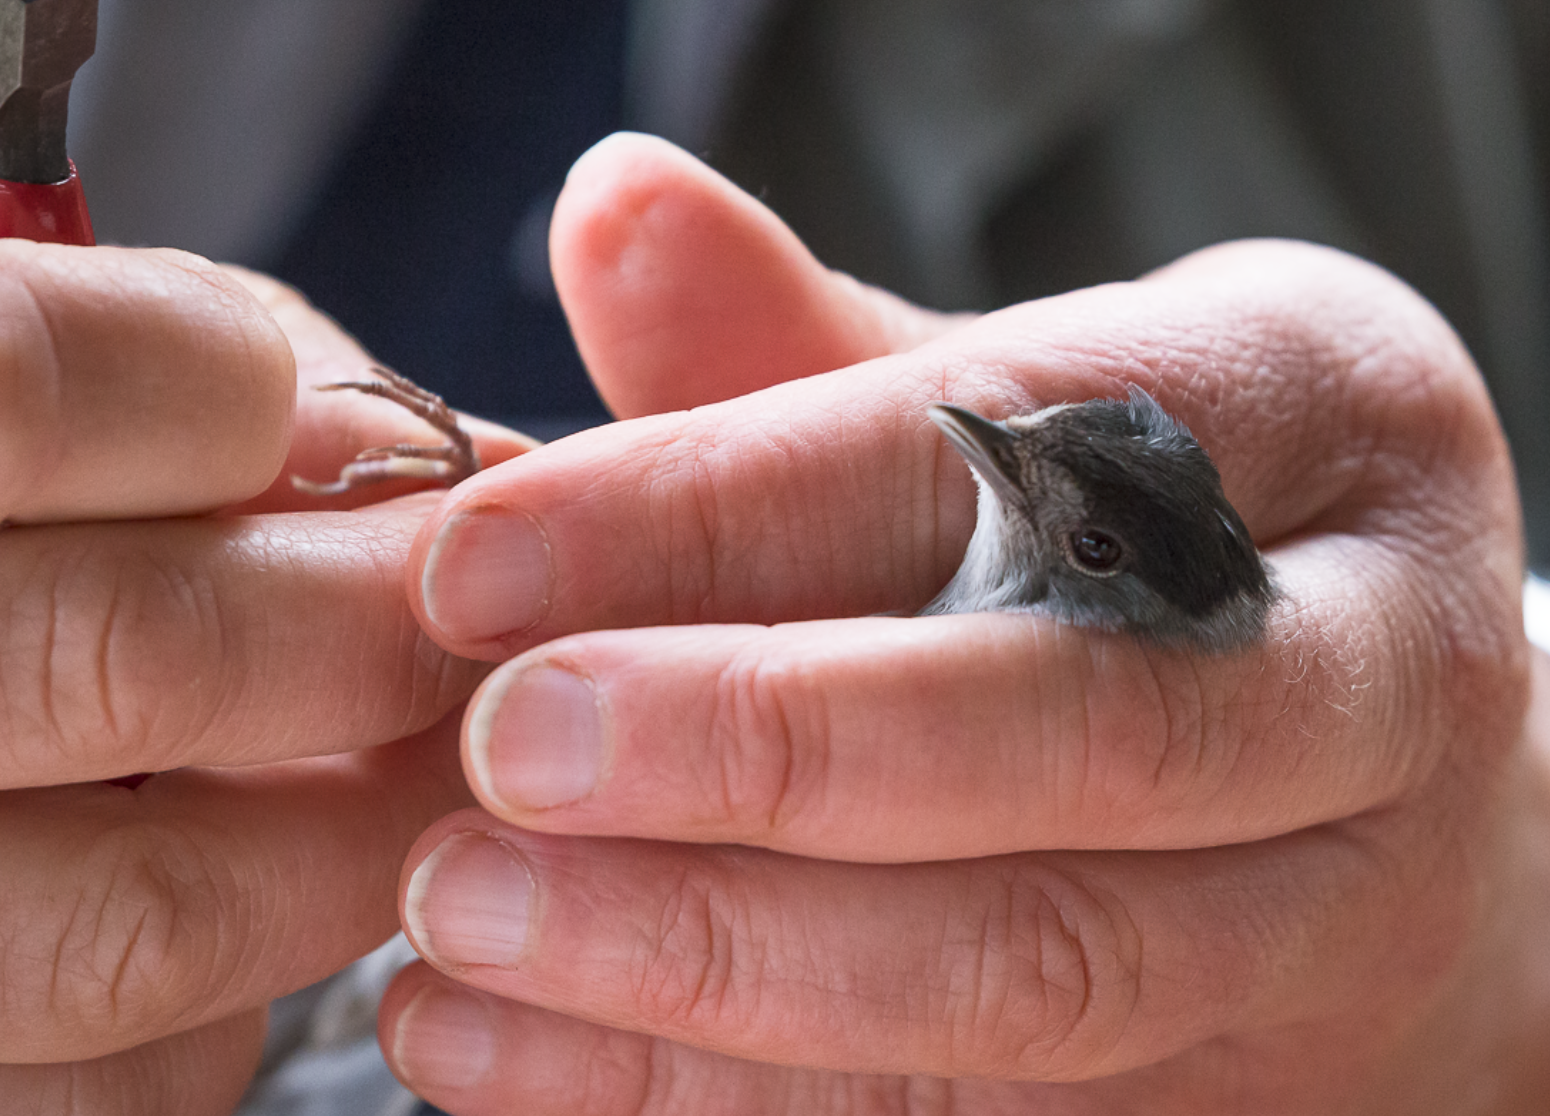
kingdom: Animalia
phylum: Chordata
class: Aves
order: Passeriformes
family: Sylviidae
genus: Sylvia
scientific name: Sylvia atricapilla
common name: Eurasian blackcap
